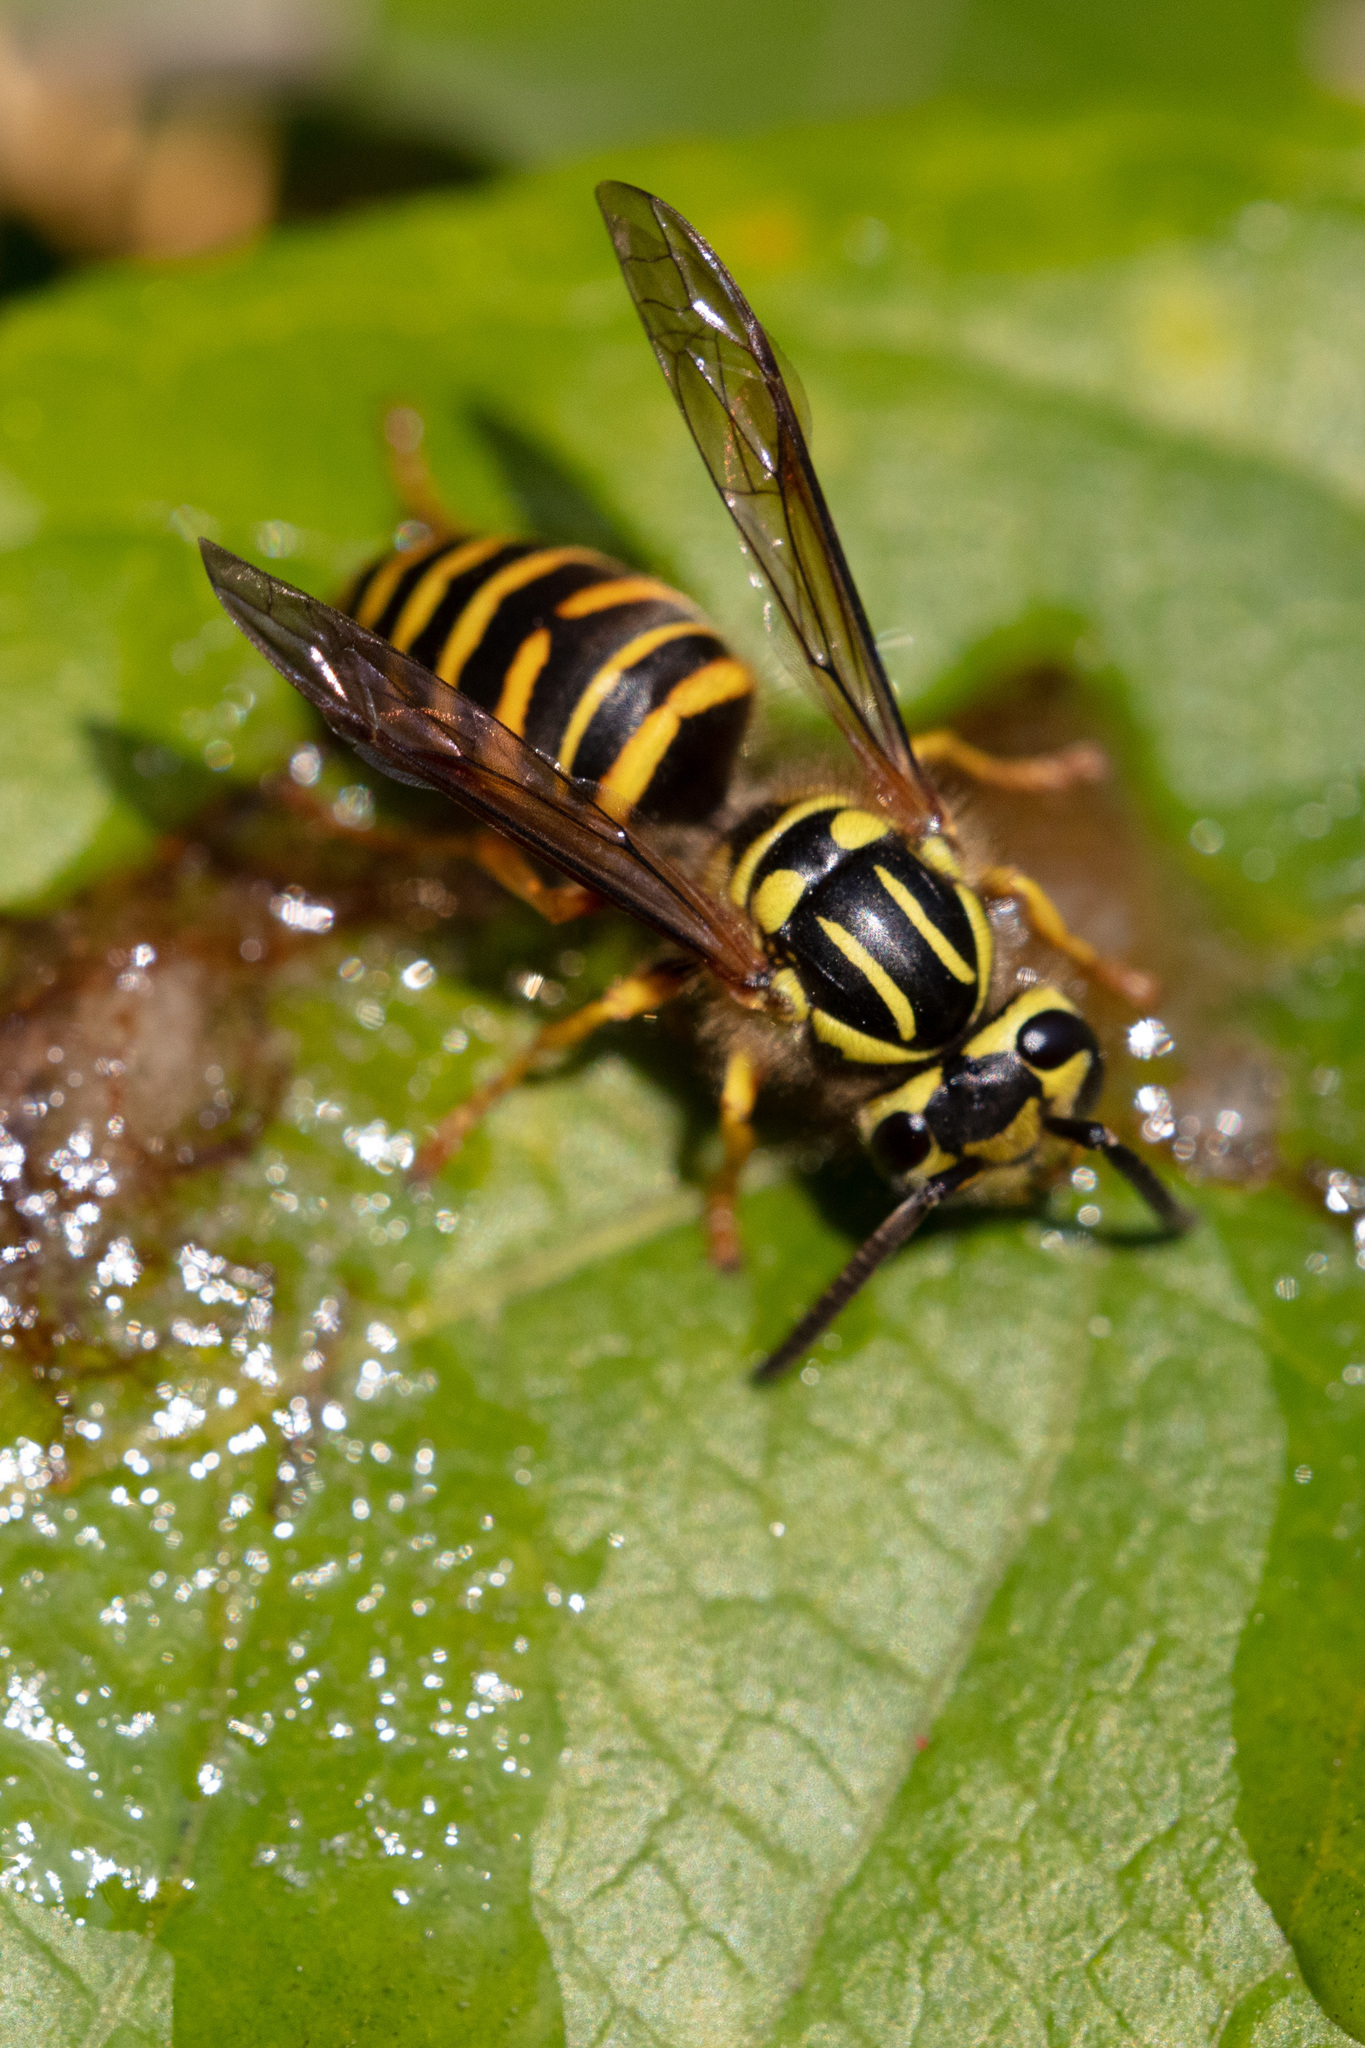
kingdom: Animalia
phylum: Arthropoda
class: Insecta
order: Hymenoptera
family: Vespidae
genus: Vespula
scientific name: Vespula squamosa
